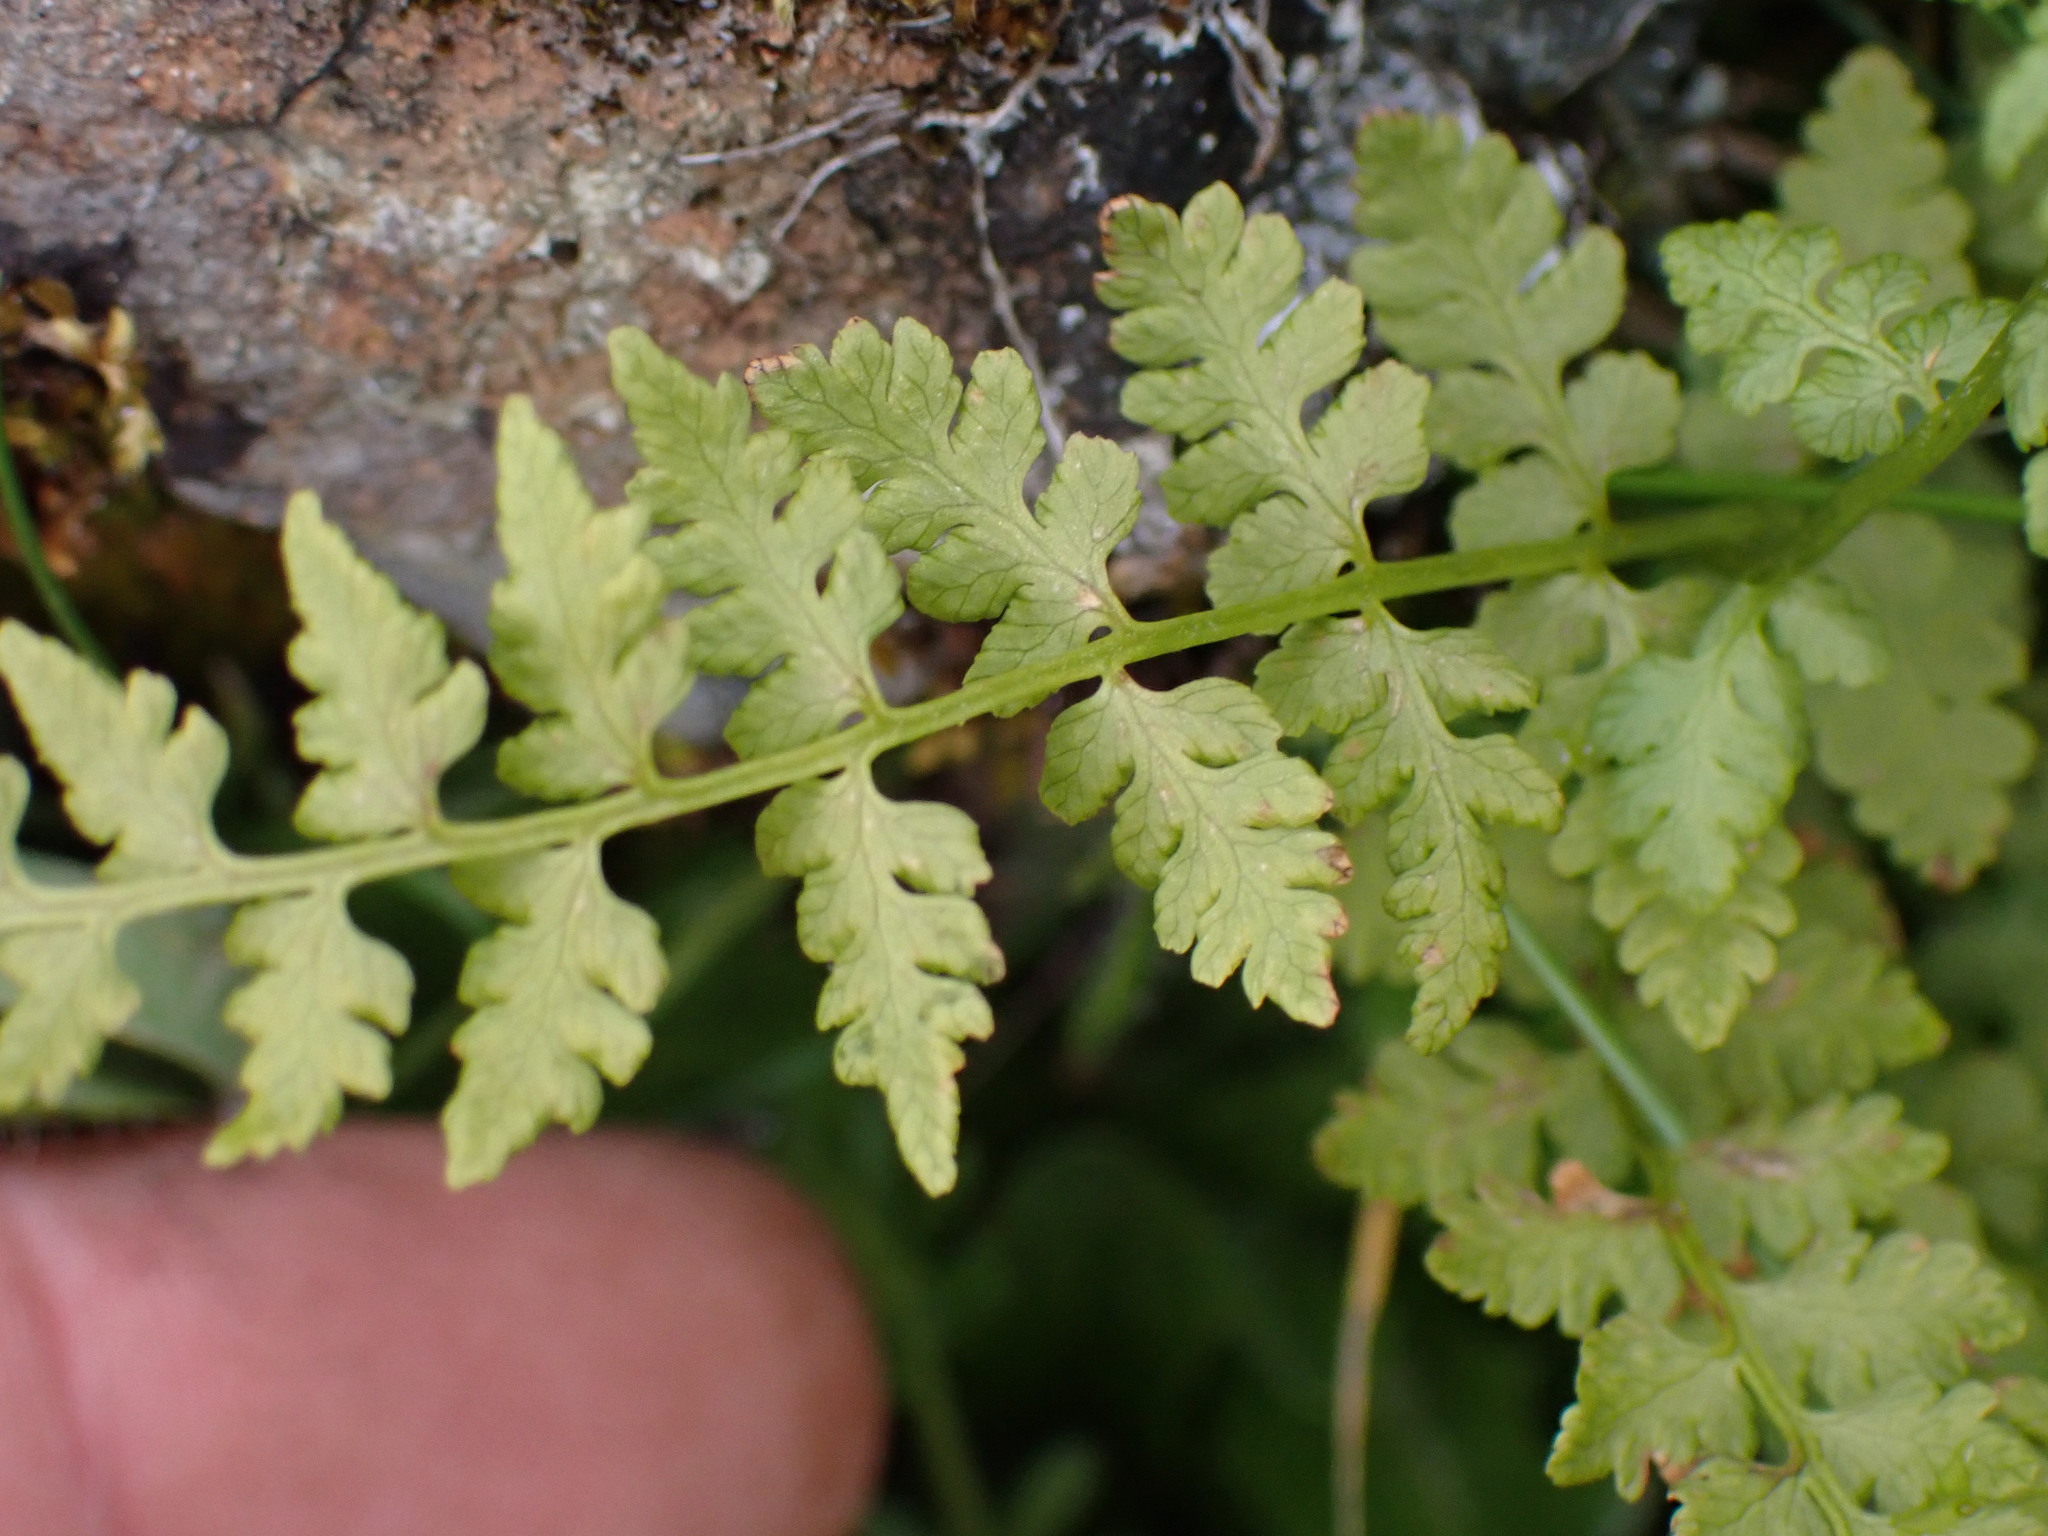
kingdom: Plantae
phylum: Tracheophyta
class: Polypodiopsida
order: Polypodiales
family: Cystopteridaceae
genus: Cystopteris
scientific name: Cystopteris fragilis
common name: Brittle bladder fern
